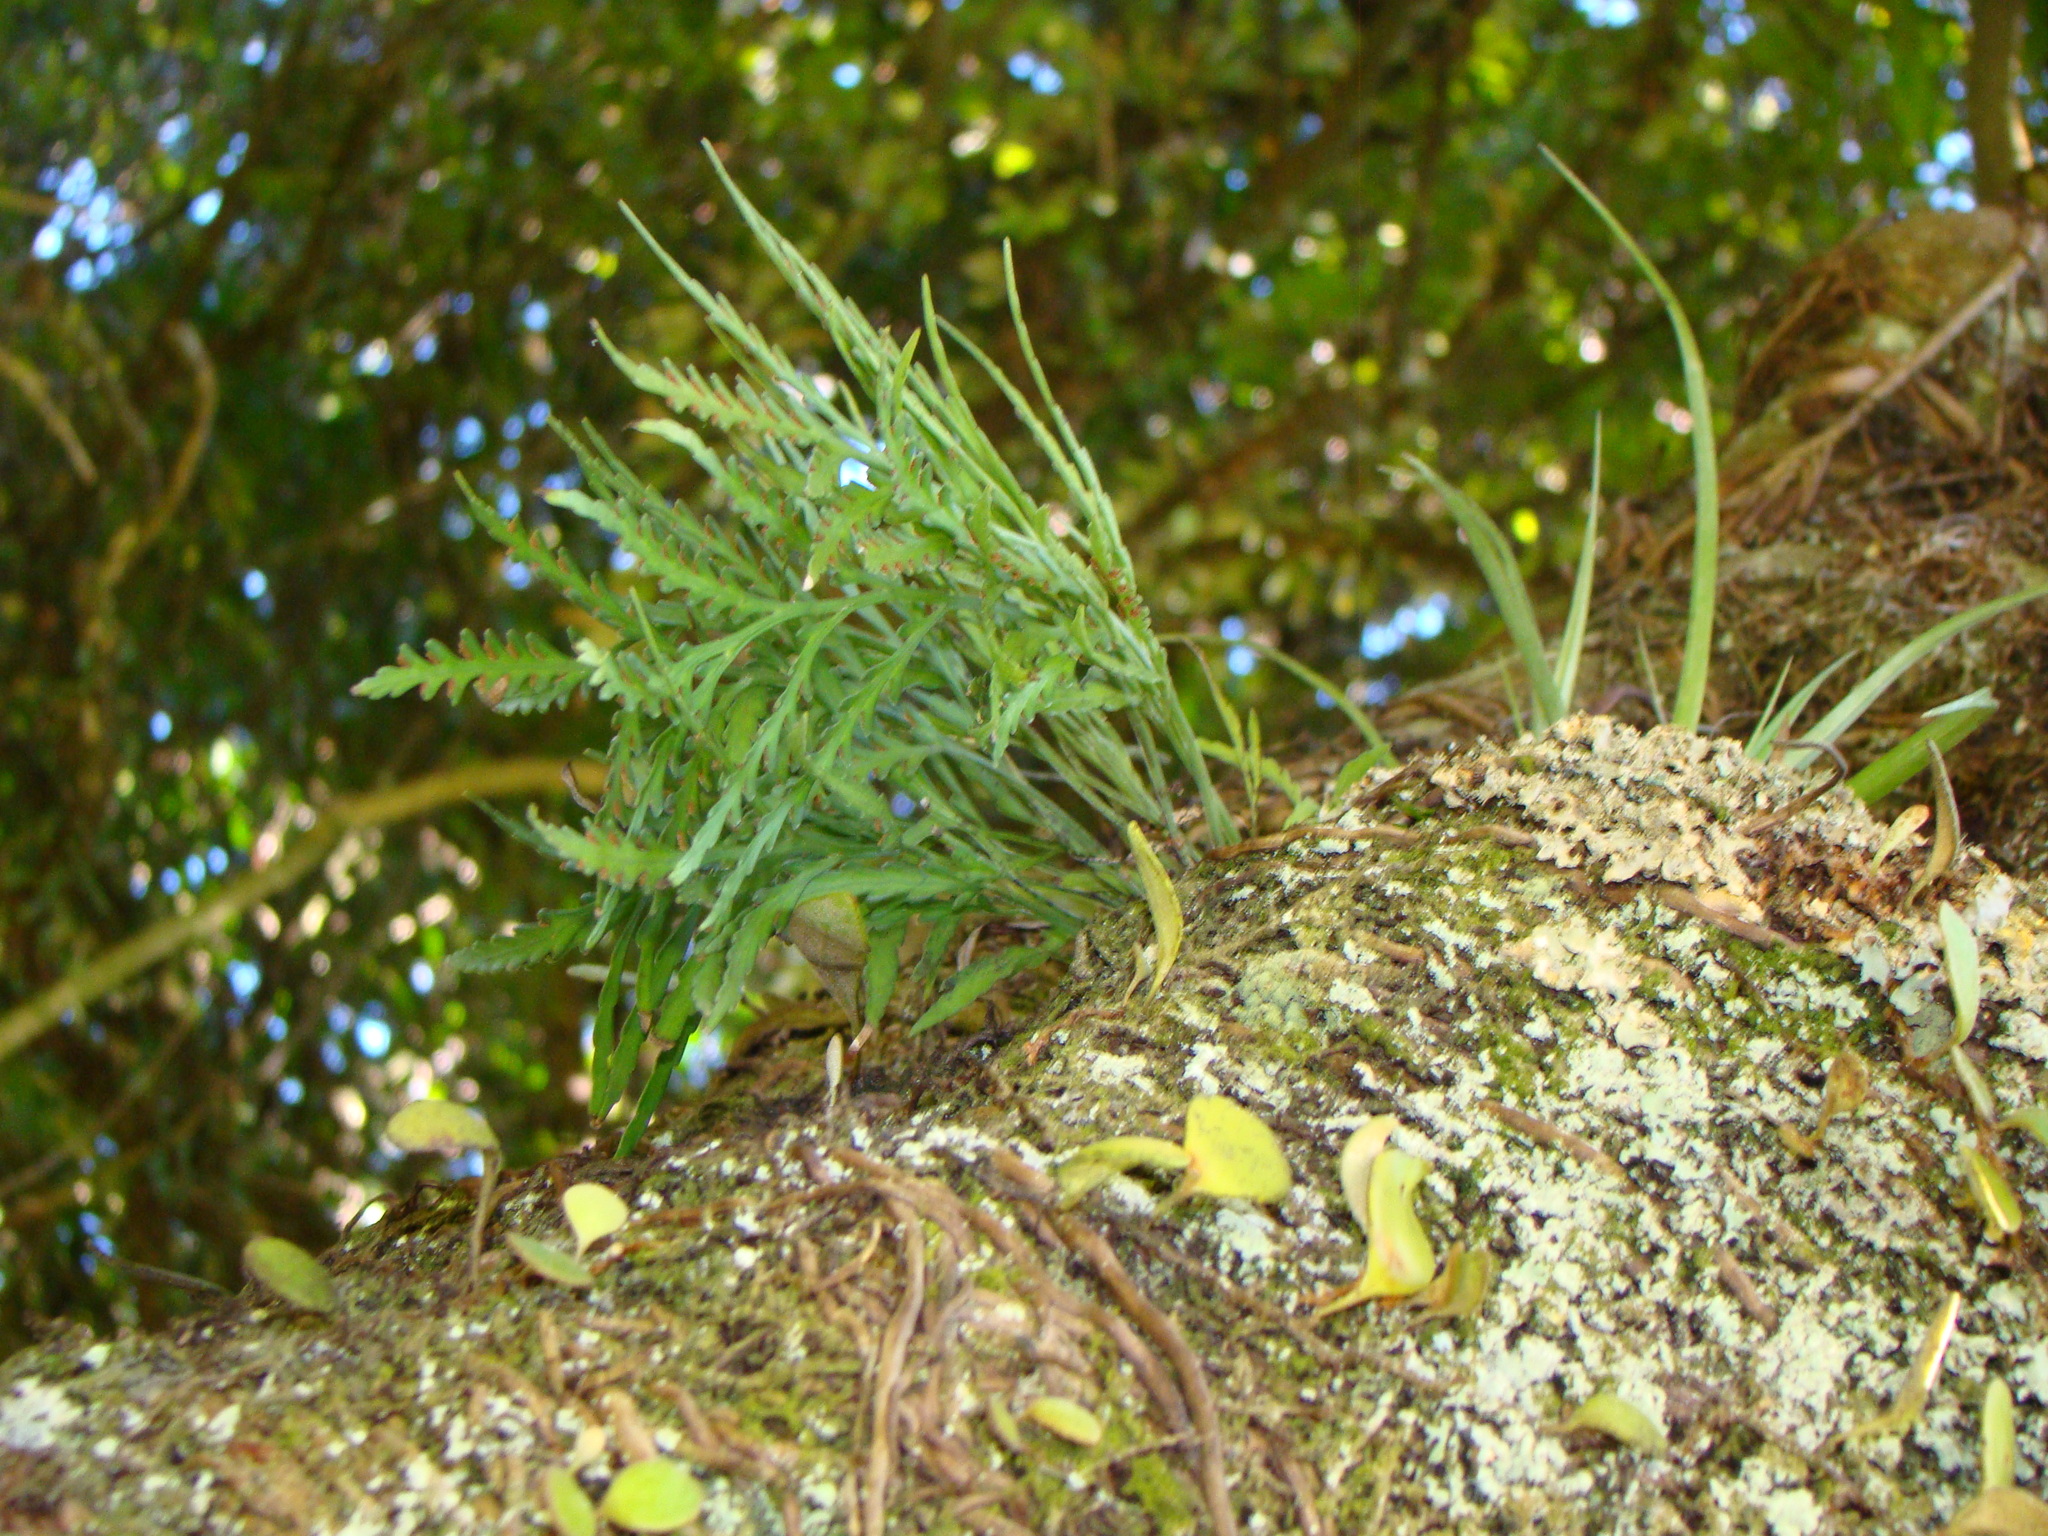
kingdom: Plantae
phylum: Tracheophyta
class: Polypodiopsida
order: Polypodiales
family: Aspleniaceae
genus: Asplenium
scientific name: Asplenium flaccidum
